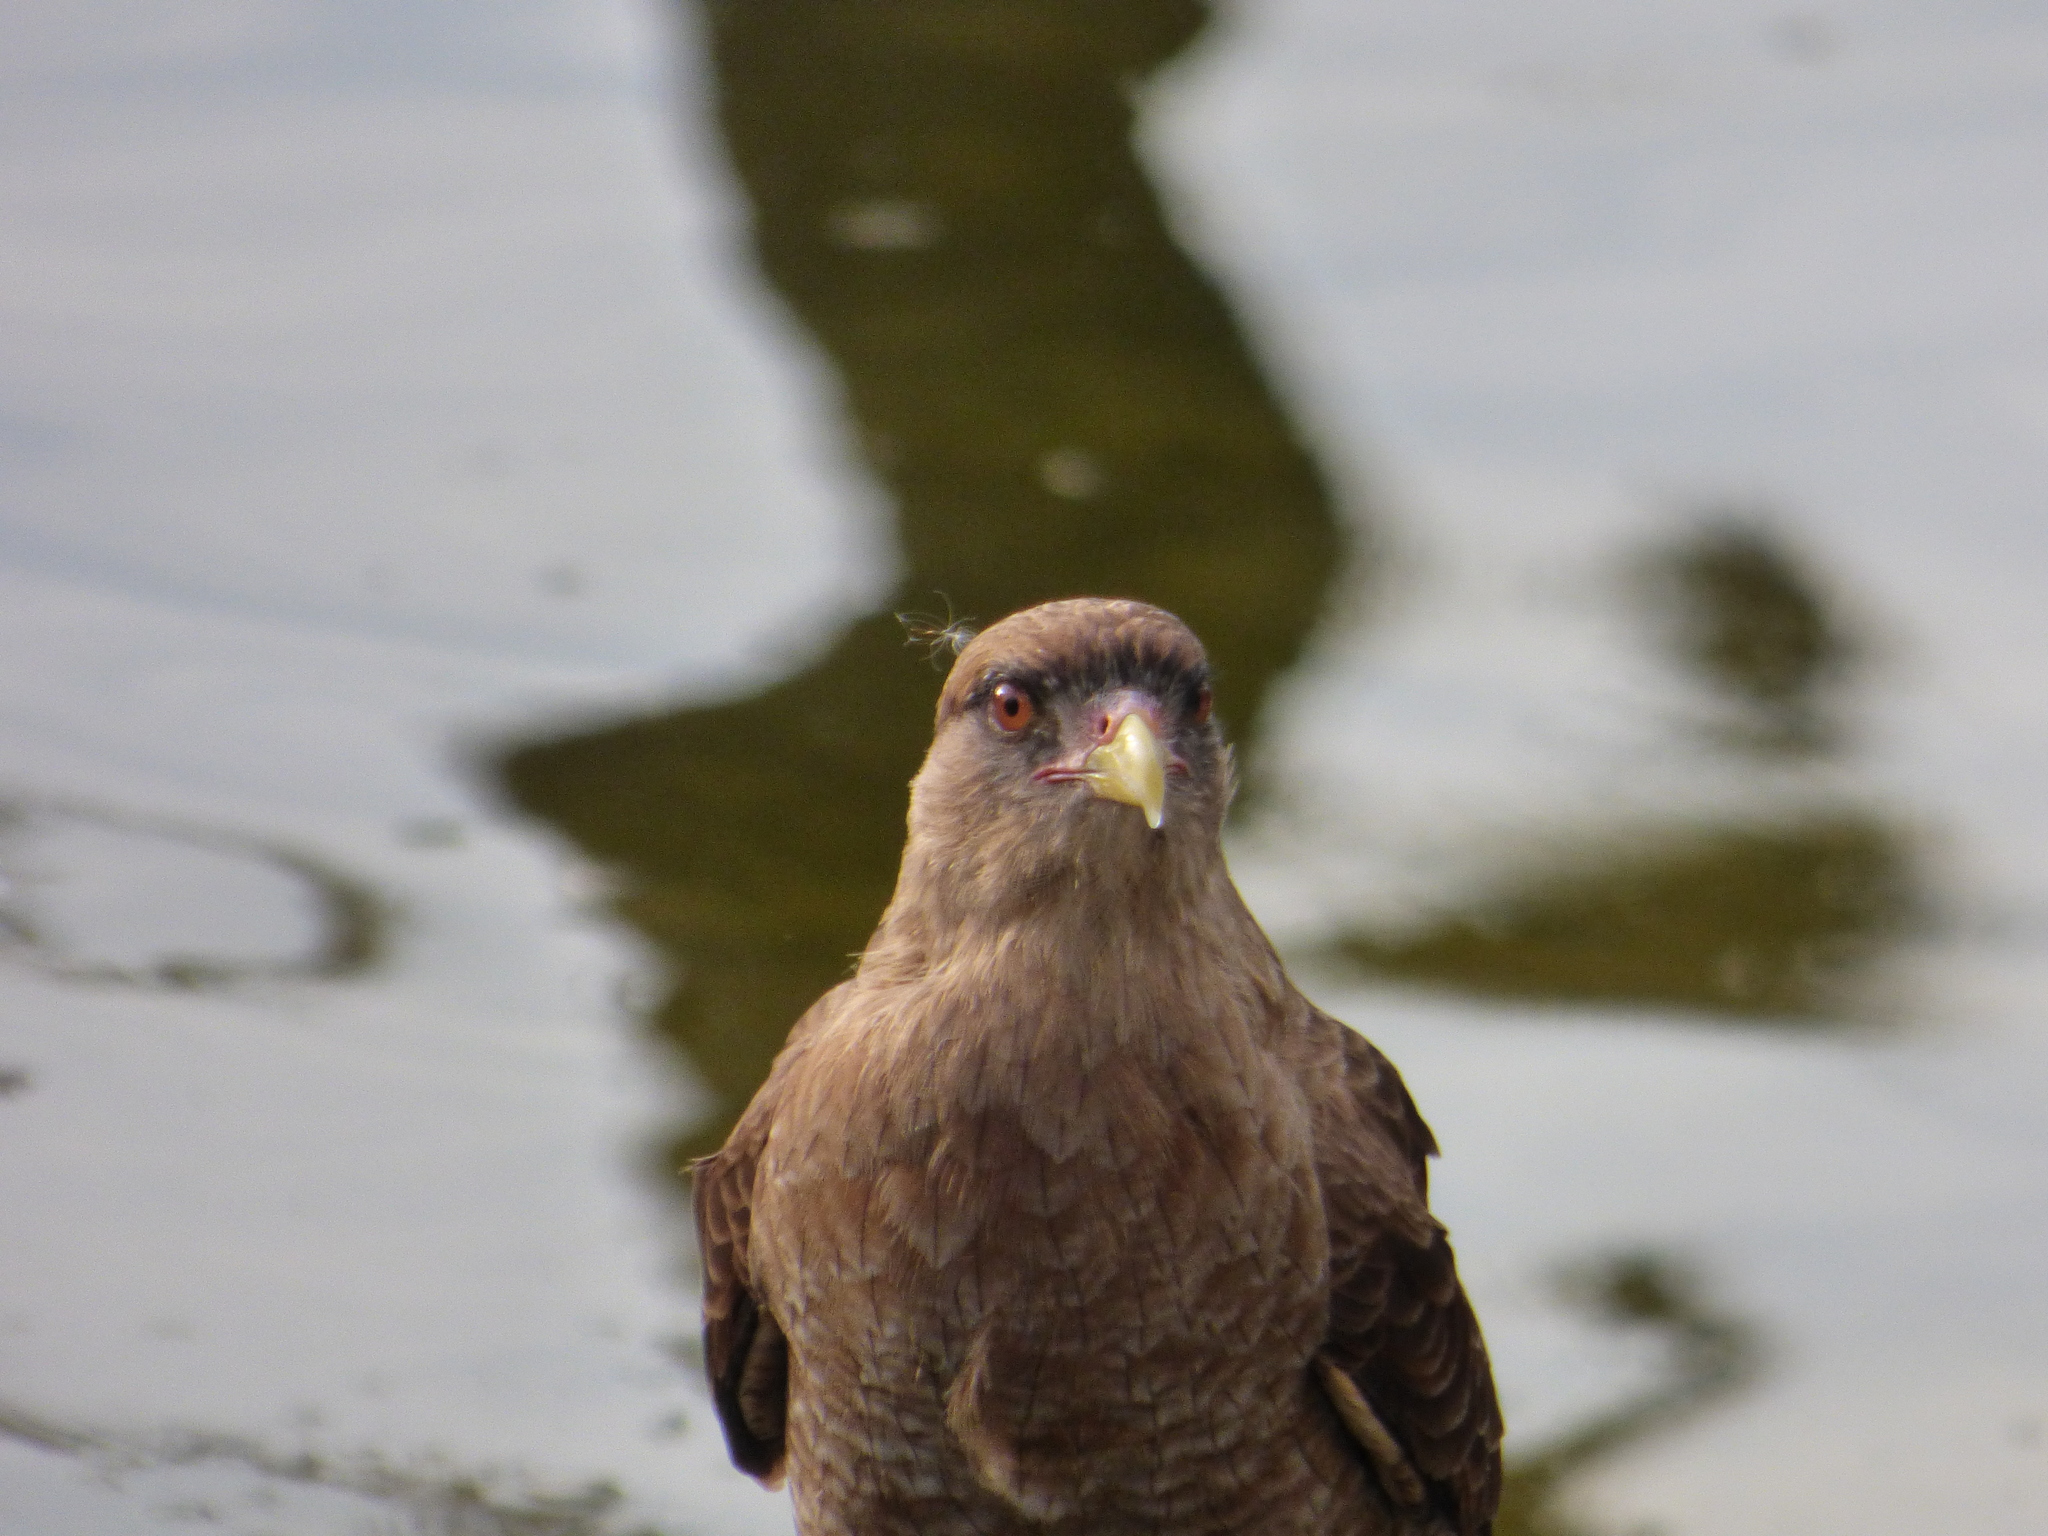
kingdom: Animalia
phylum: Chordata
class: Aves
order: Falconiformes
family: Falconidae
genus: Daptrius
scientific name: Daptrius
